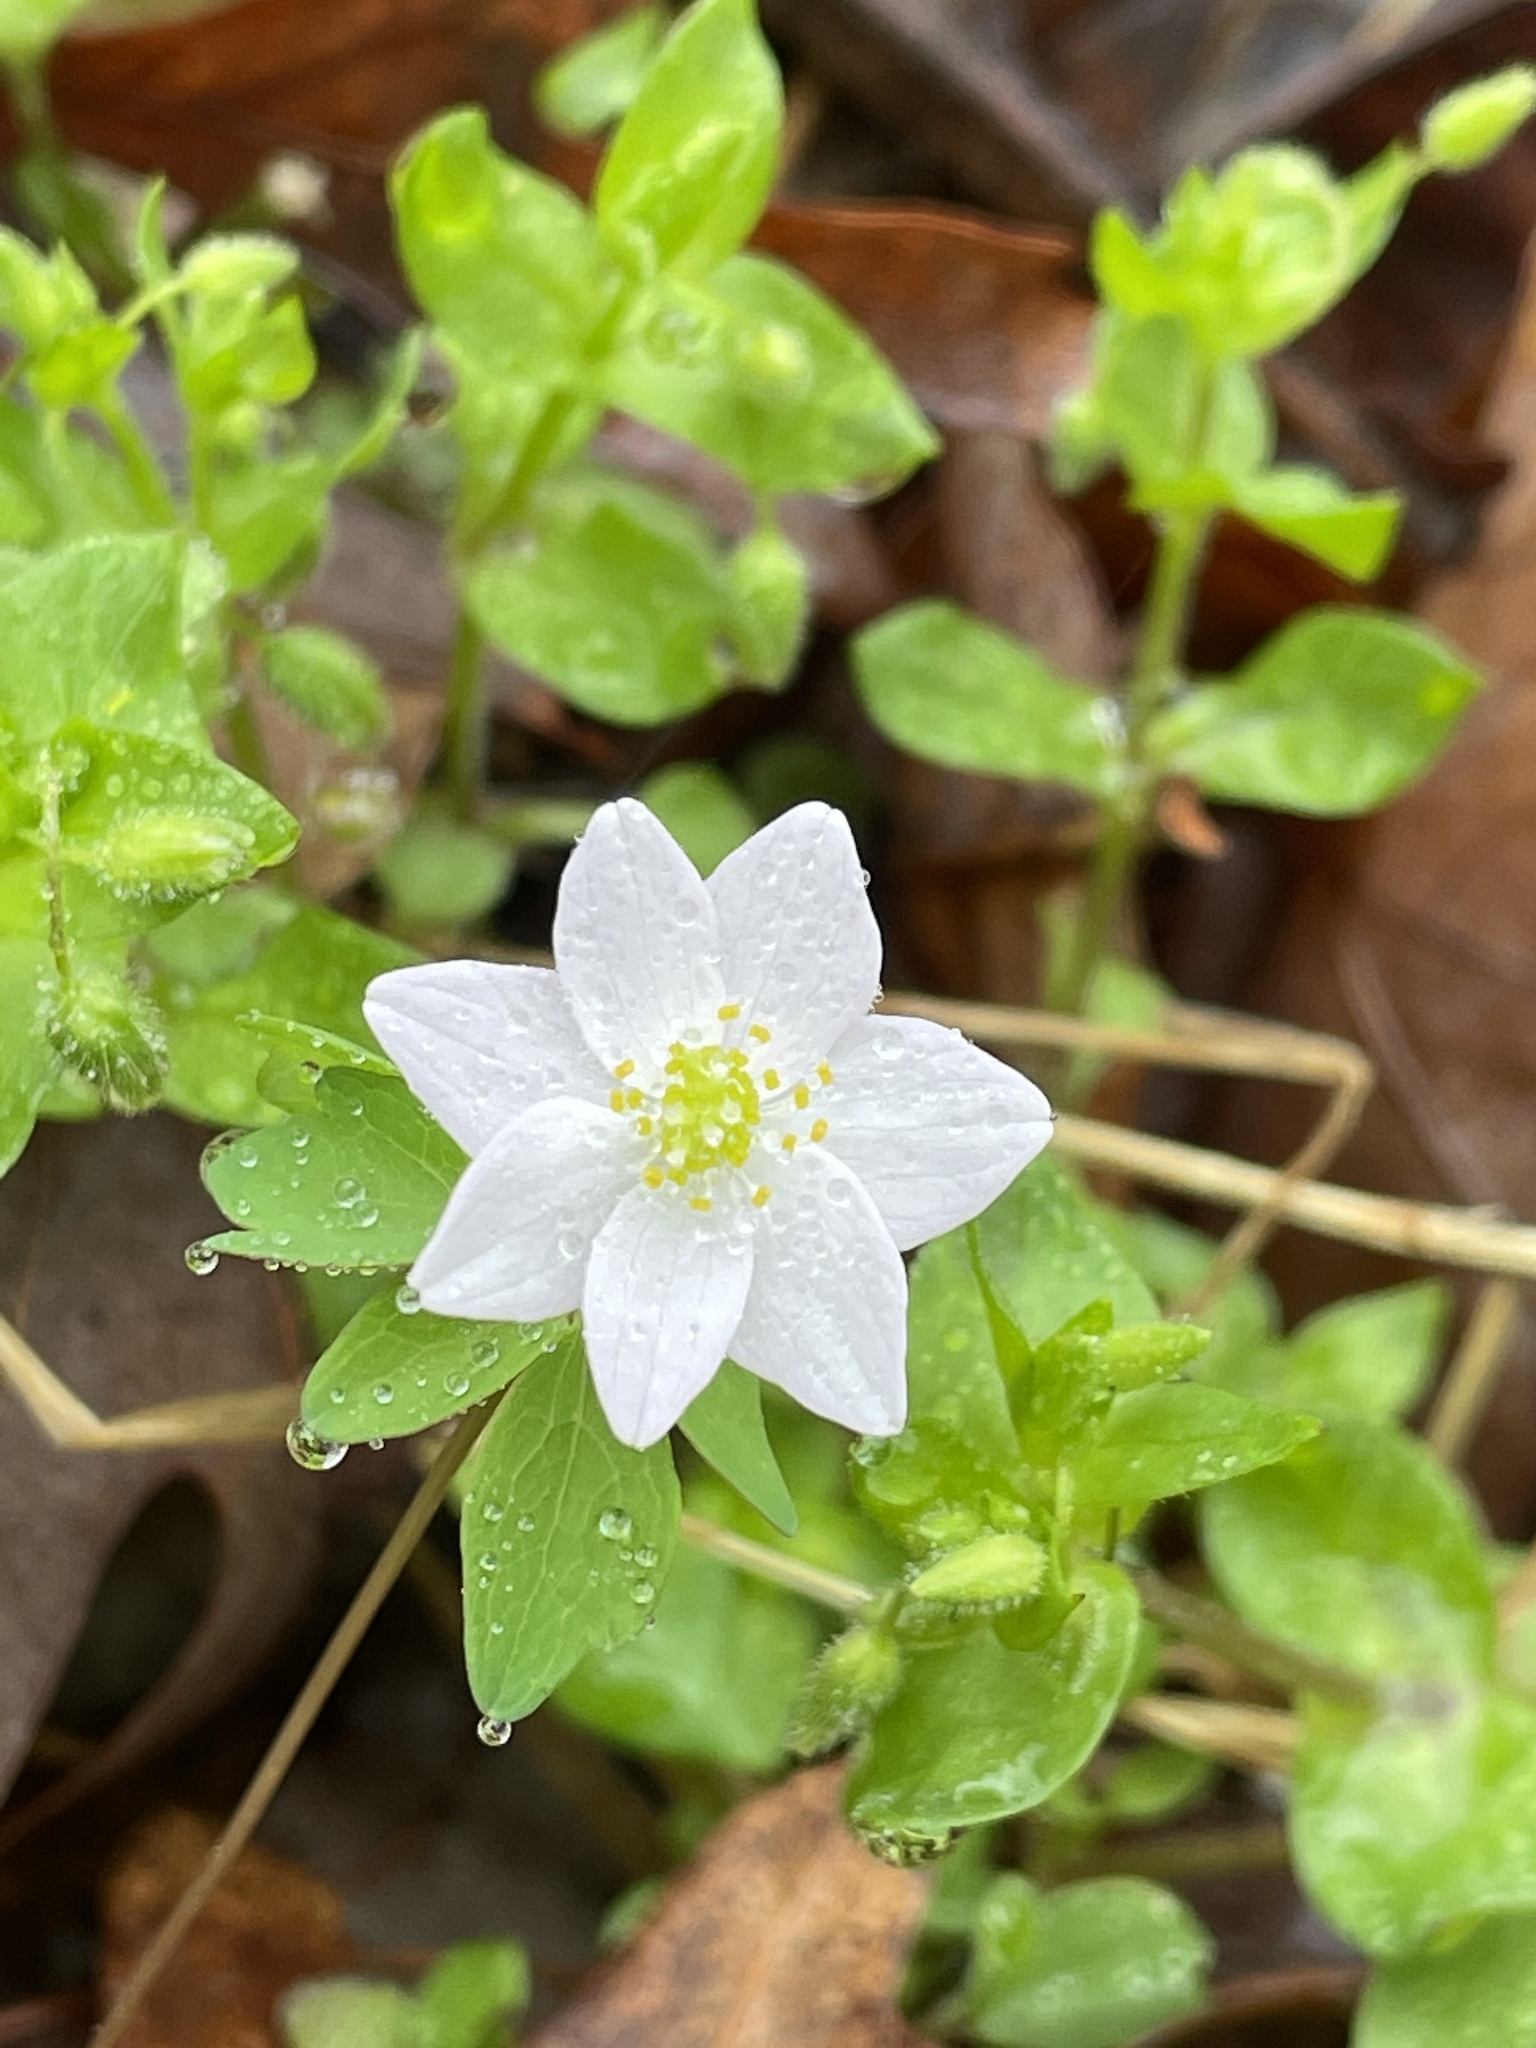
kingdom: Plantae
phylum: Tracheophyta
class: Magnoliopsida
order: Ranunculales
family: Ranunculaceae
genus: Thalictrum
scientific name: Thalictrum thalictroides
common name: Rue-anemone
